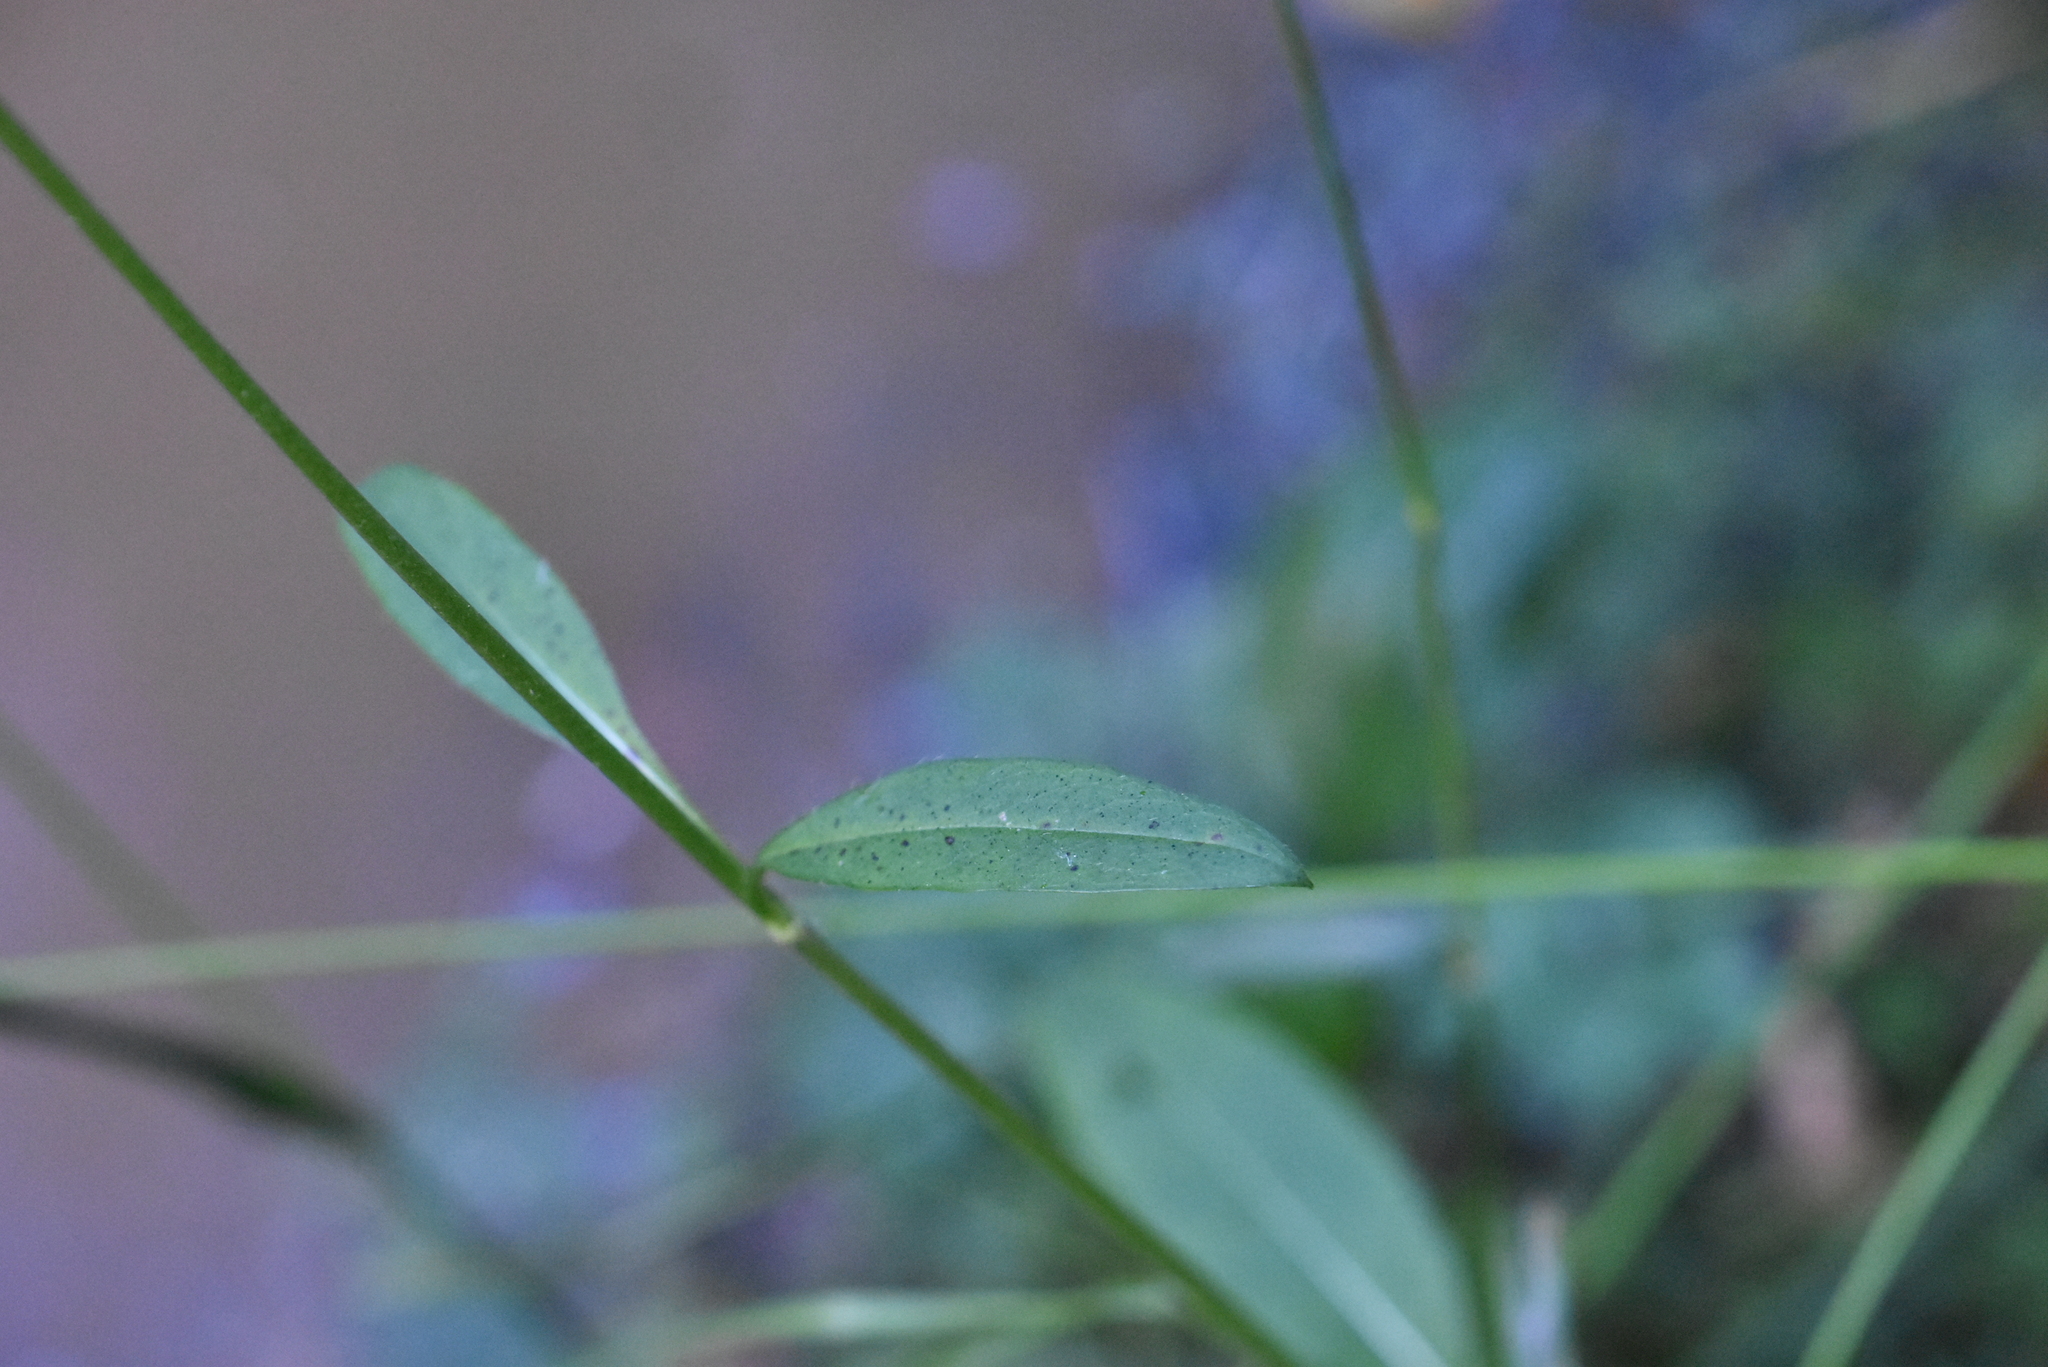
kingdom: Plantae
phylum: Tracheophyta
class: Magnoliopsida
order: Dipsacales
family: Caprifoliaceae
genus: Succisa
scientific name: Succisa pratensis
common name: Devil's-bit
